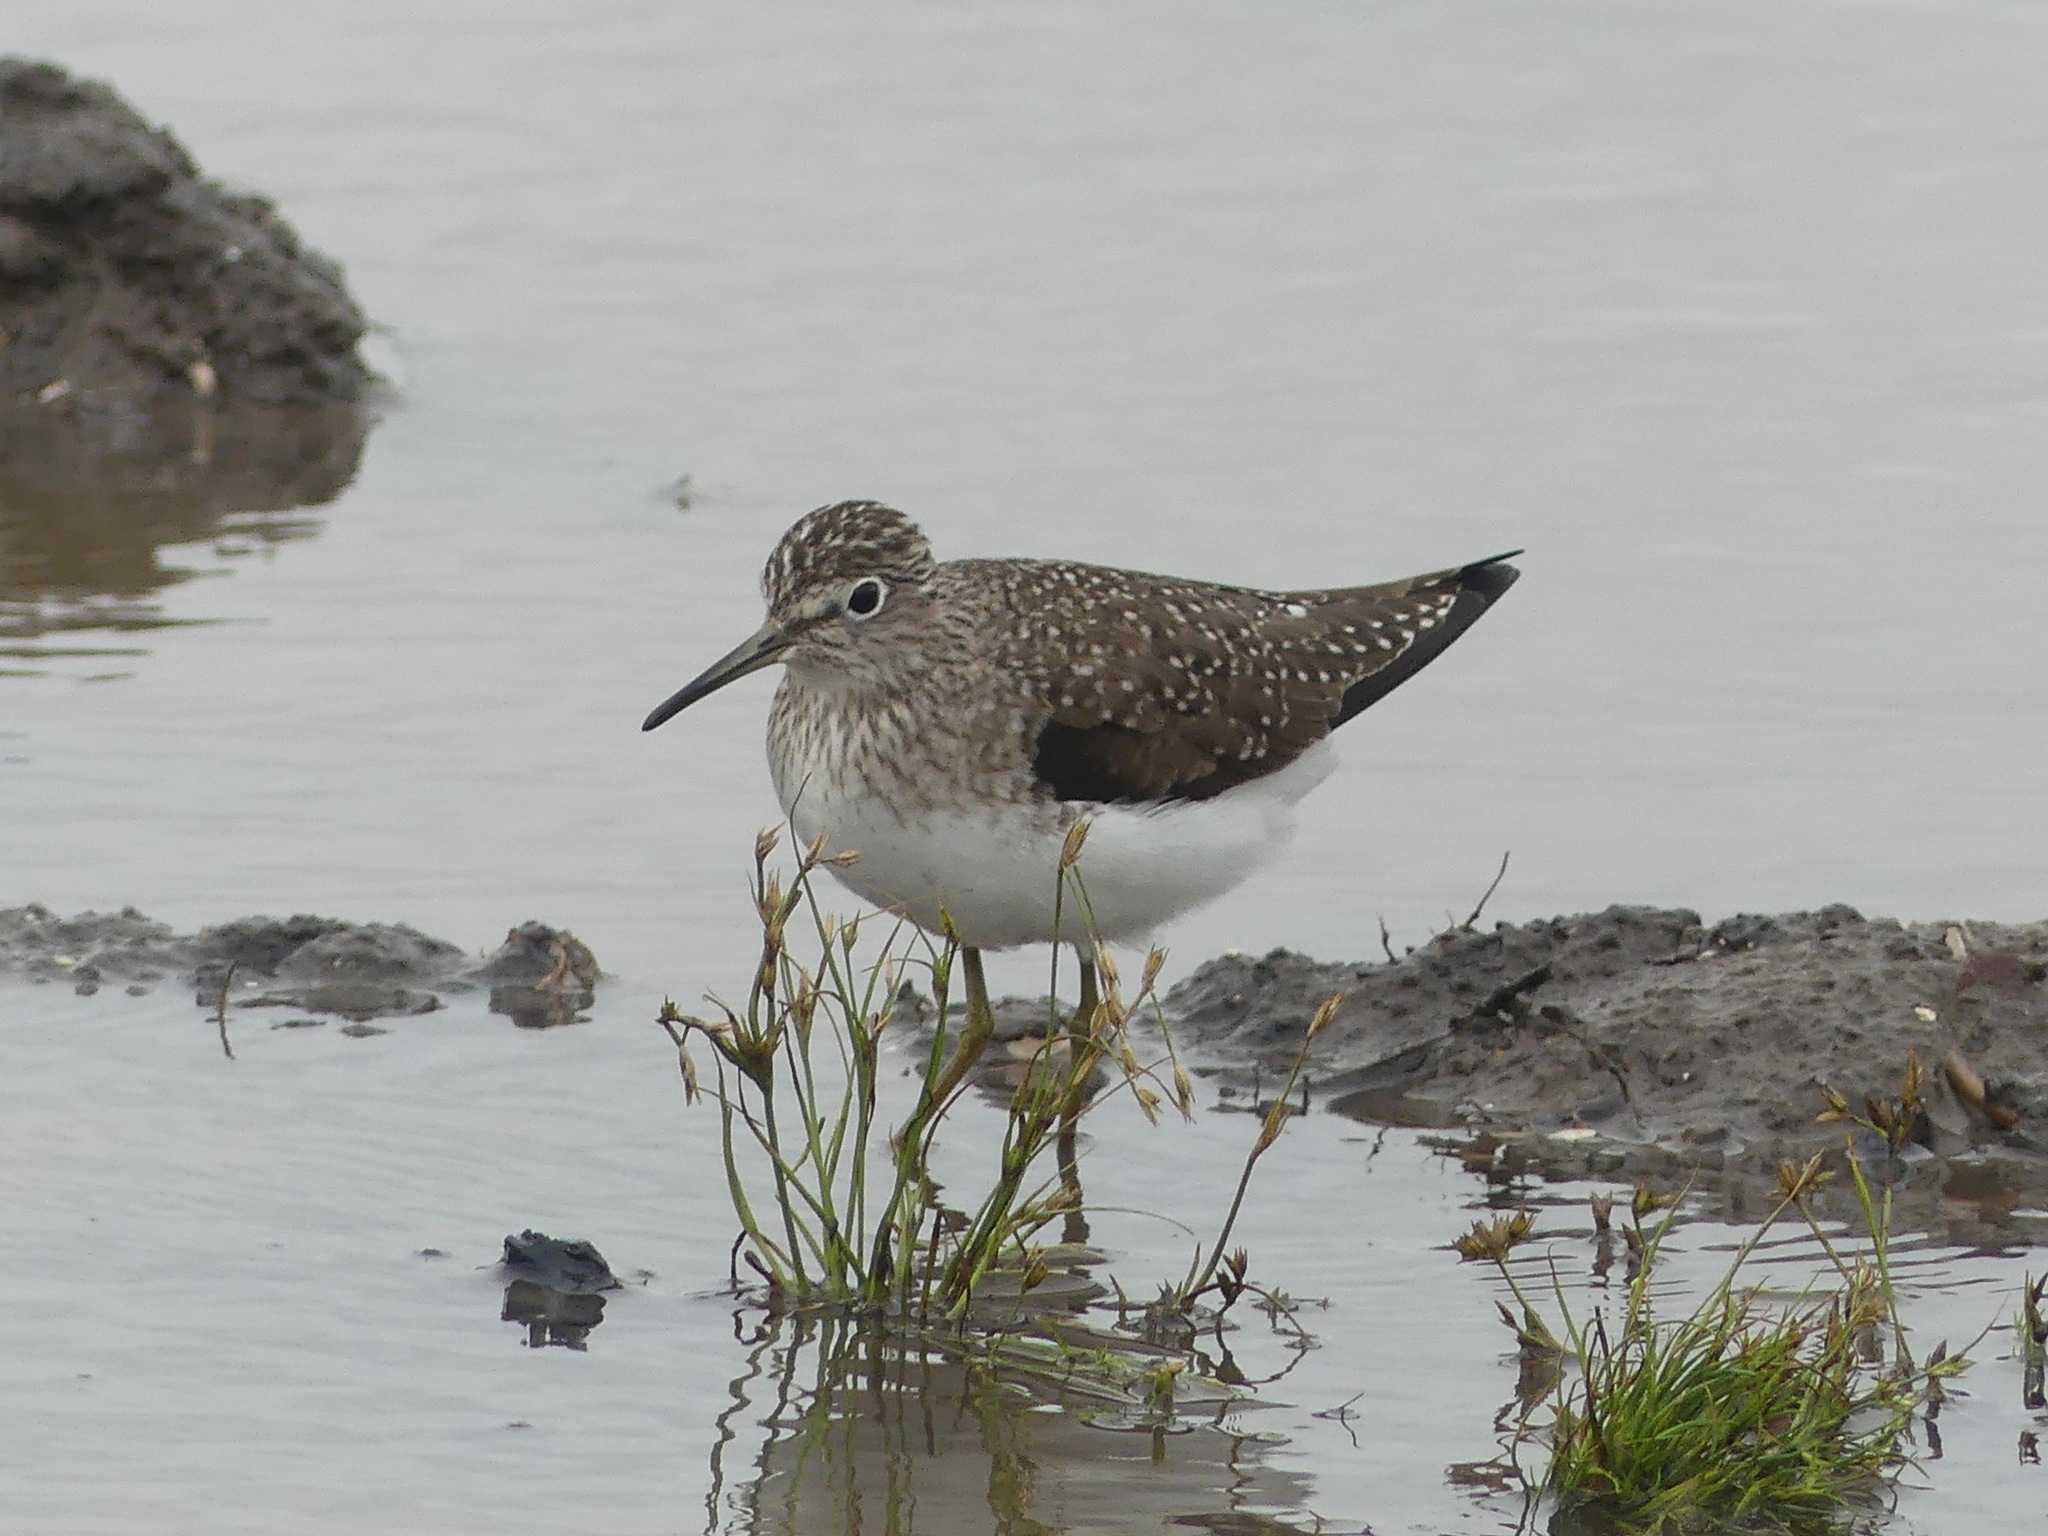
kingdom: Animalia
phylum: Chordata
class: Aves
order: Charadriiformes
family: Scolopacidae
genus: Tringa
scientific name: Tringa solitaria
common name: Solitary sandpiper
